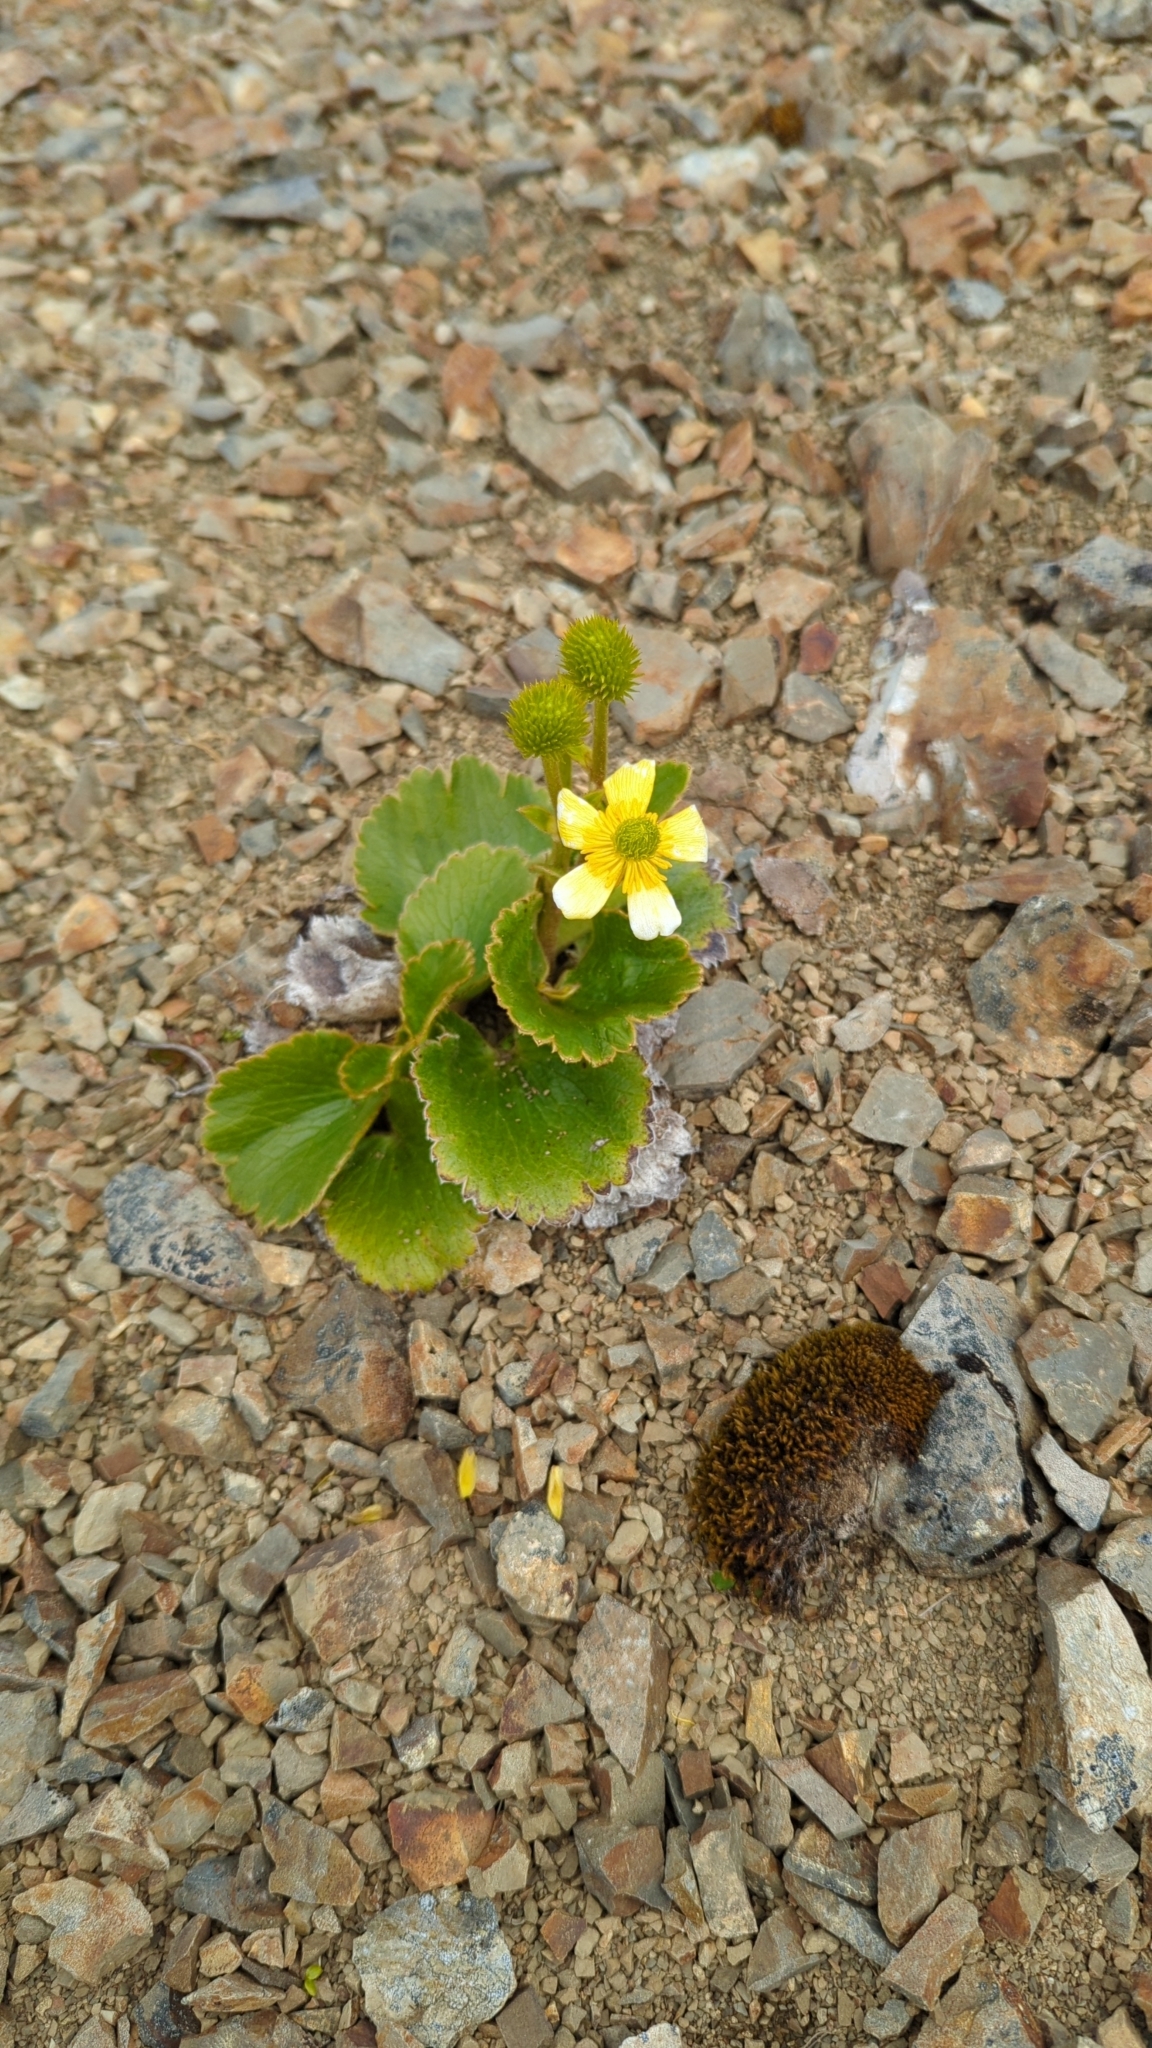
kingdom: Plantae
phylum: Tracheophyta
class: Magnoliopsida
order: Ranunculales
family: Ranunculaceae
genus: Ranunculus
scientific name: Ranunculus nivicola
